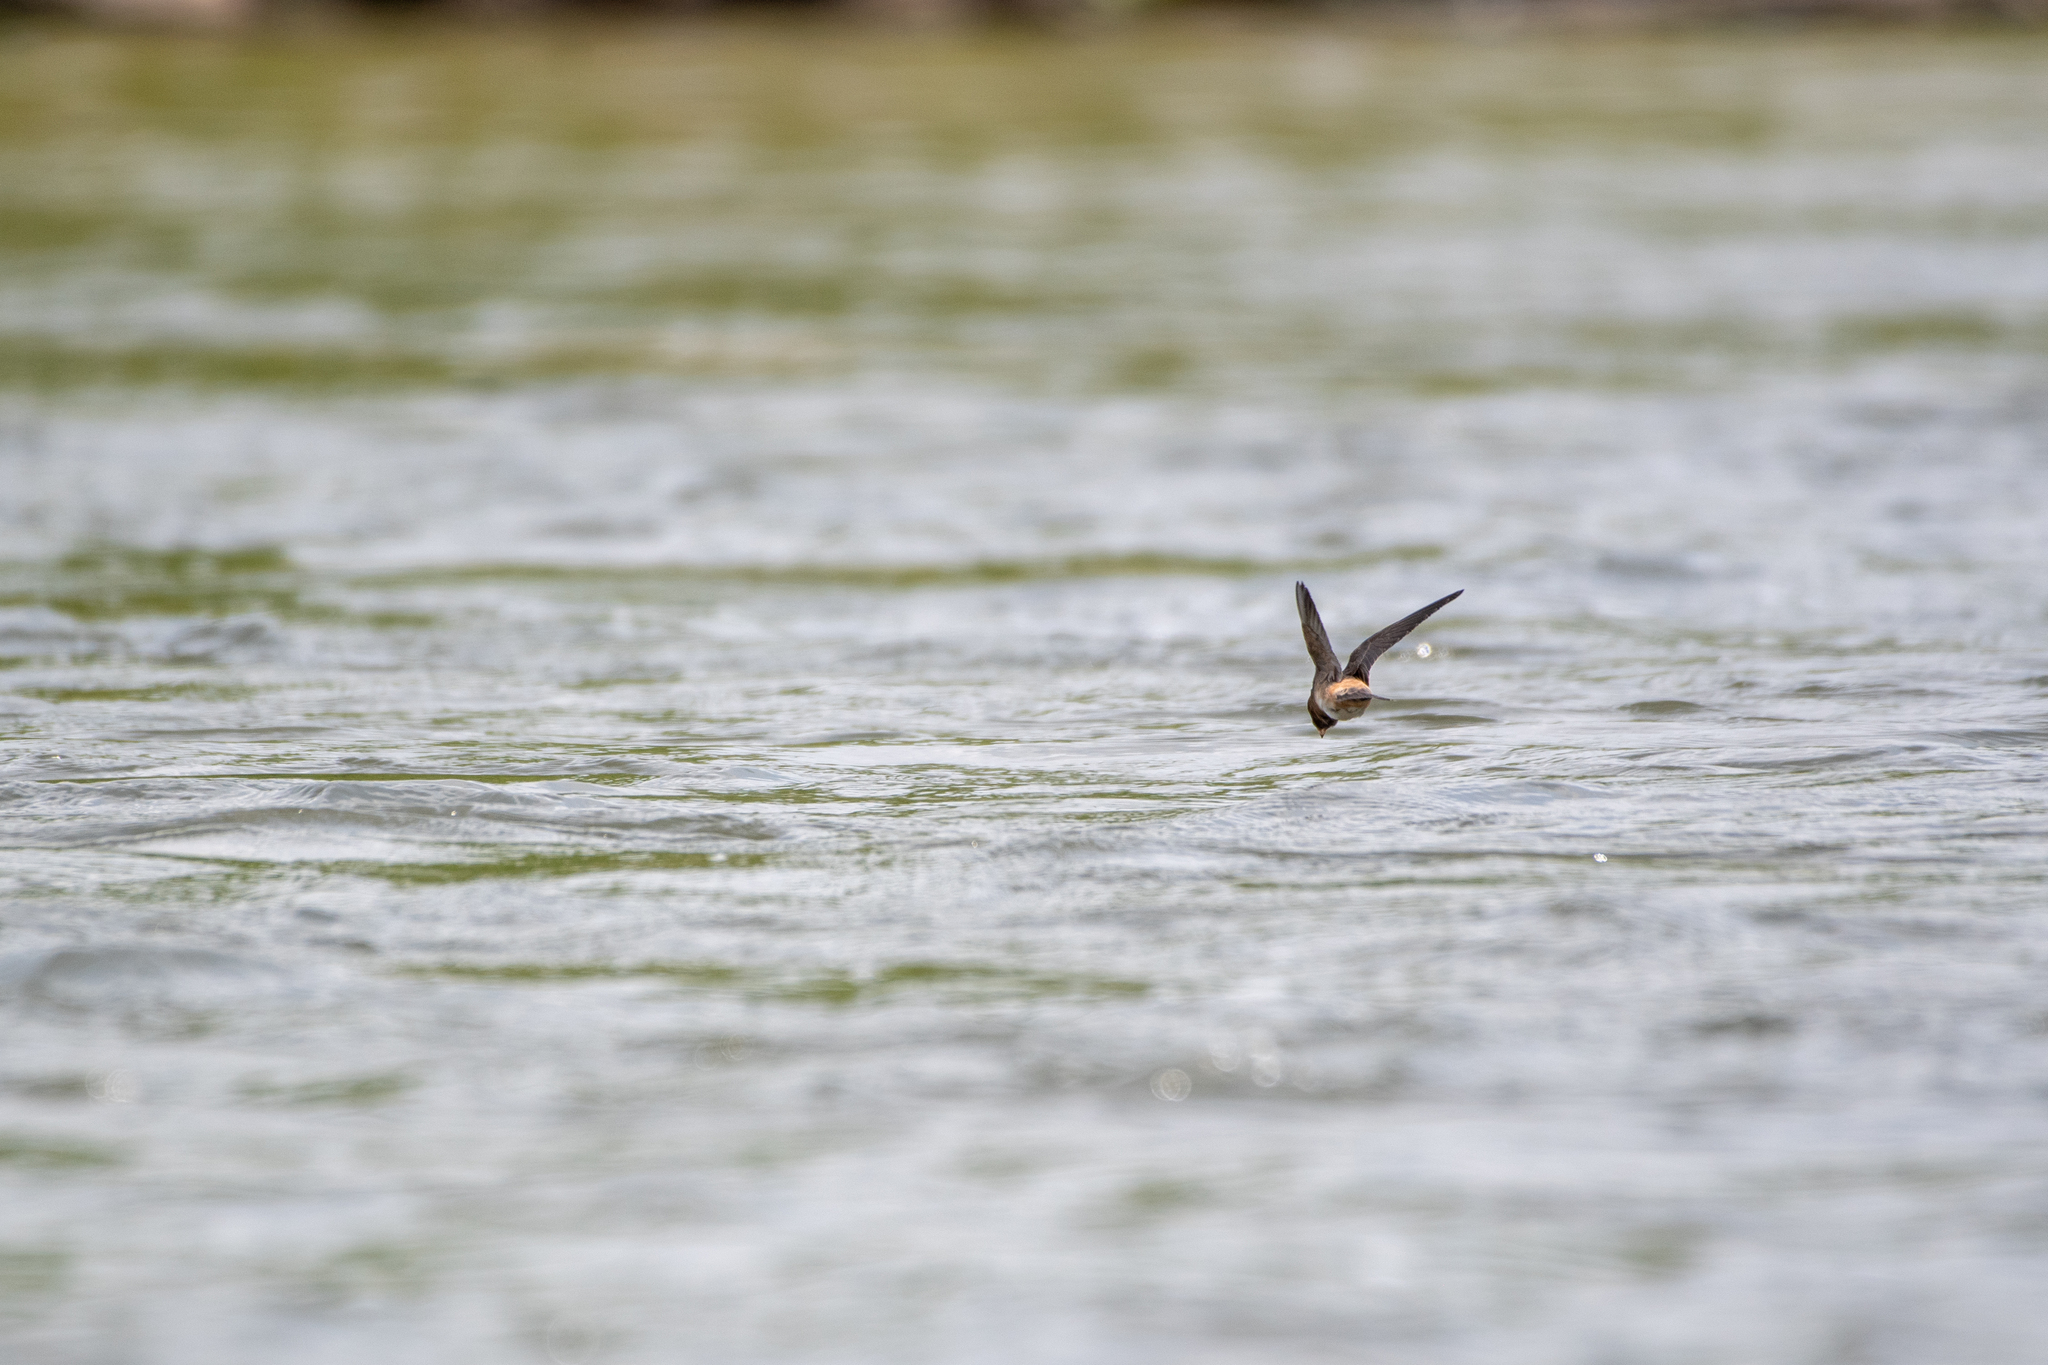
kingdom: Animalia
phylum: Chordata
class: Aves
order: Passeriformes
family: Hirundinidae
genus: Petrochelidon
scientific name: Petrochelidon pyrrhonota
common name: American cliff swallow
